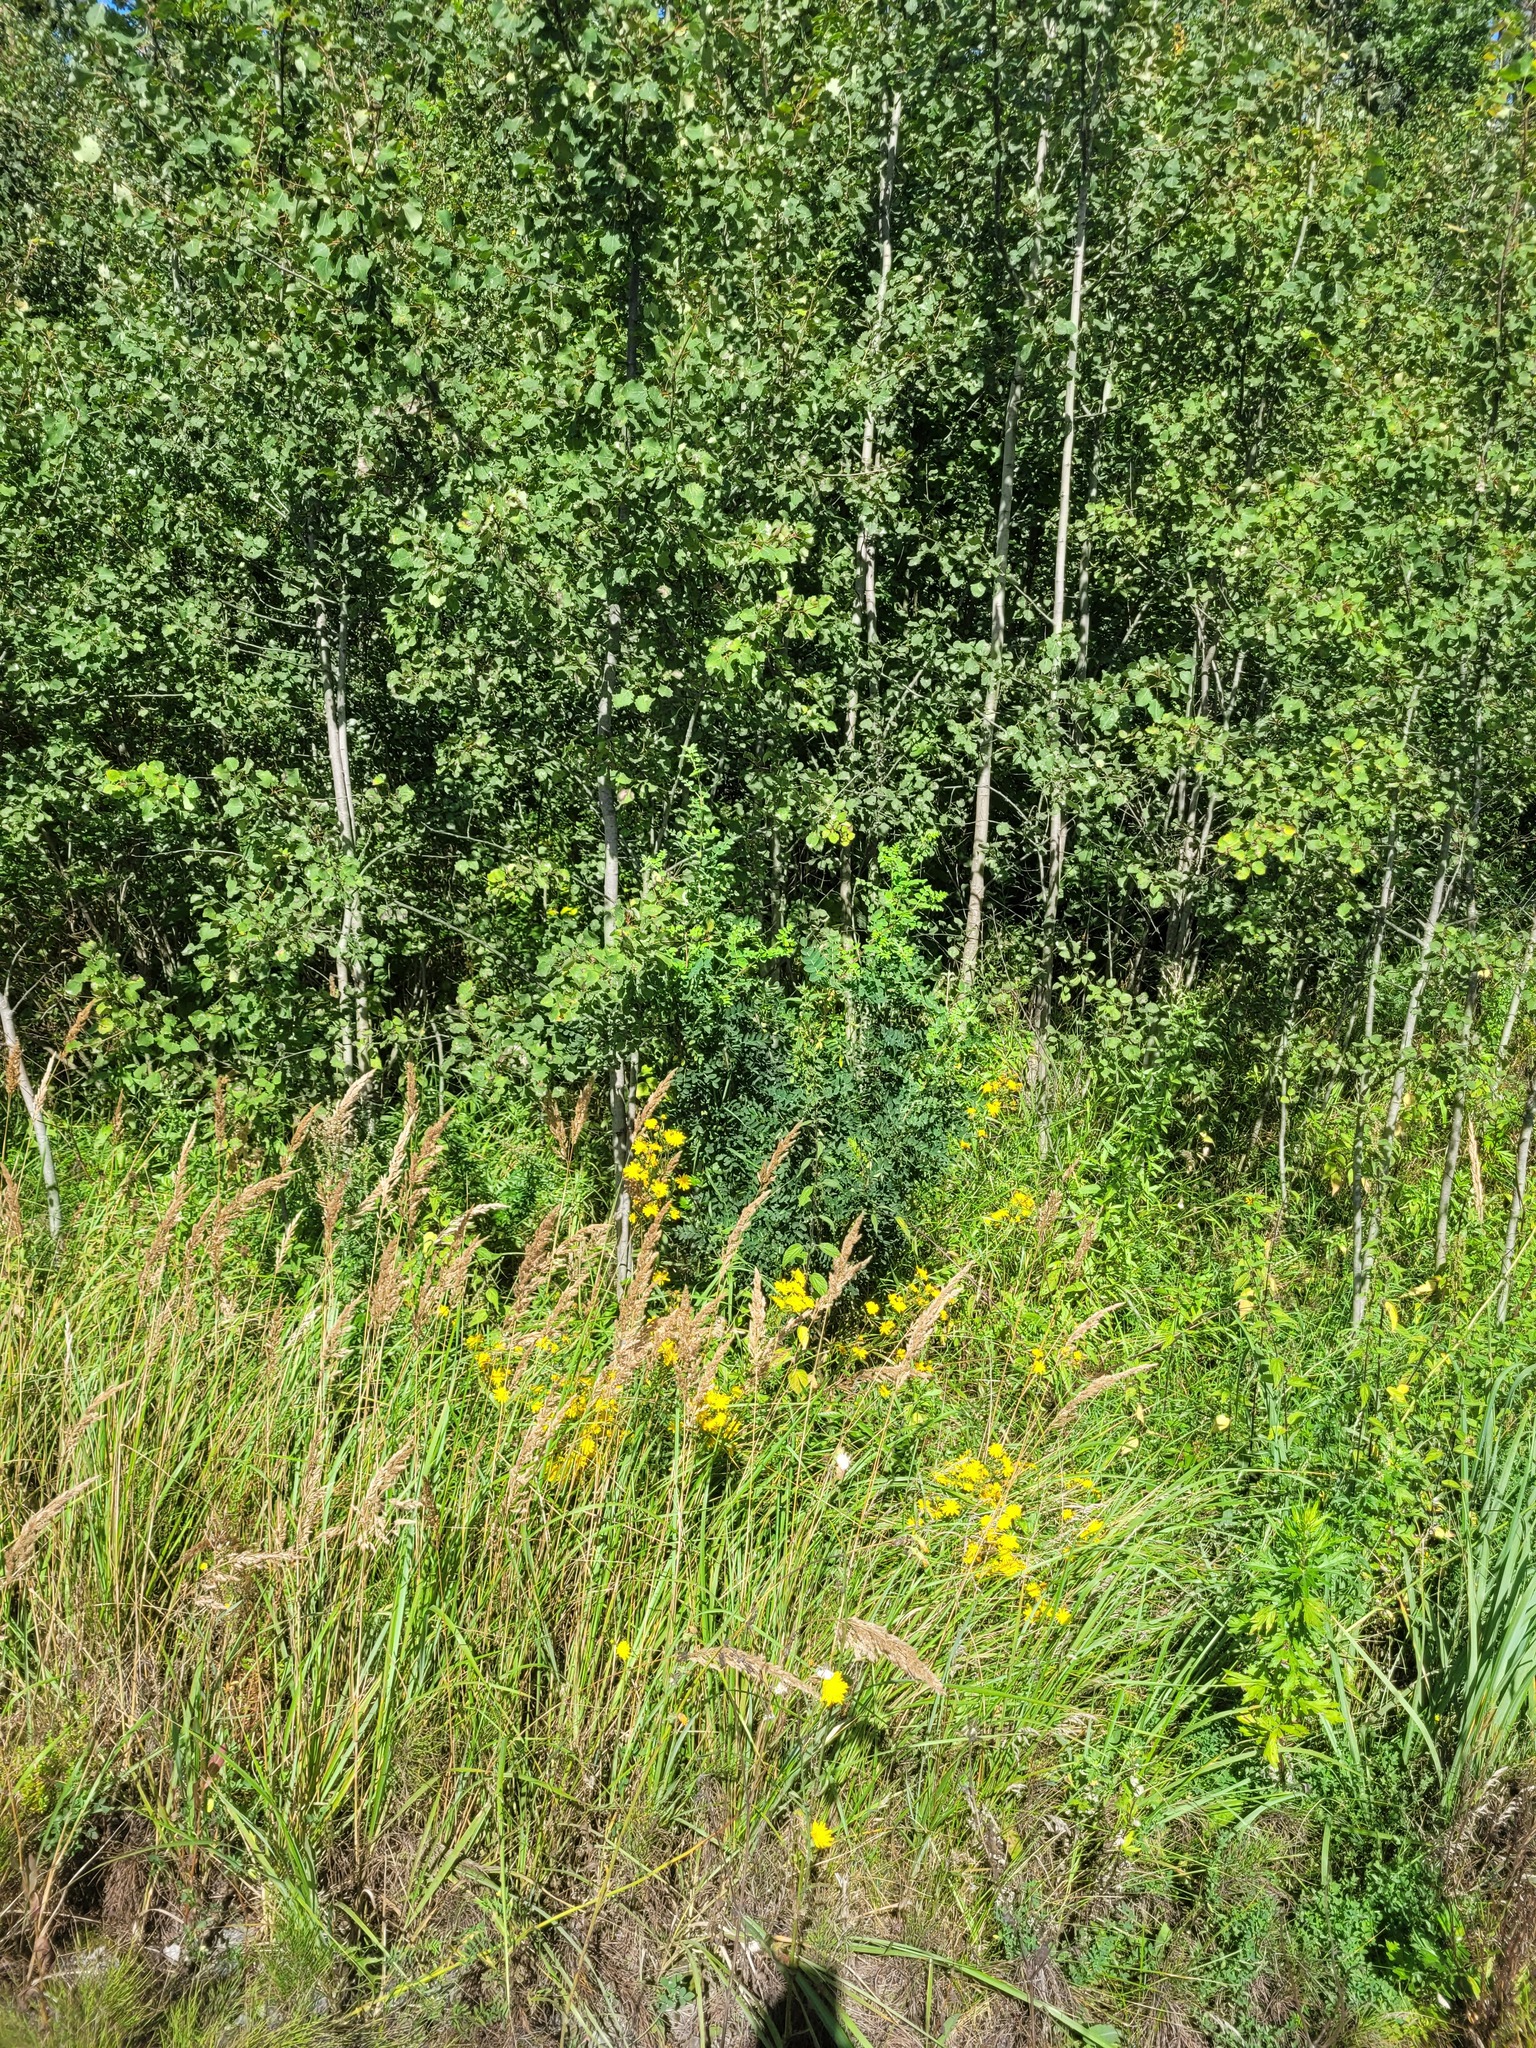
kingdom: Plantae
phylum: Tracheophyta
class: Magnoliopsida
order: Fabales
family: Fabaceae
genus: Caragana
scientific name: Caragana arborescens
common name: Siberian peashrub
